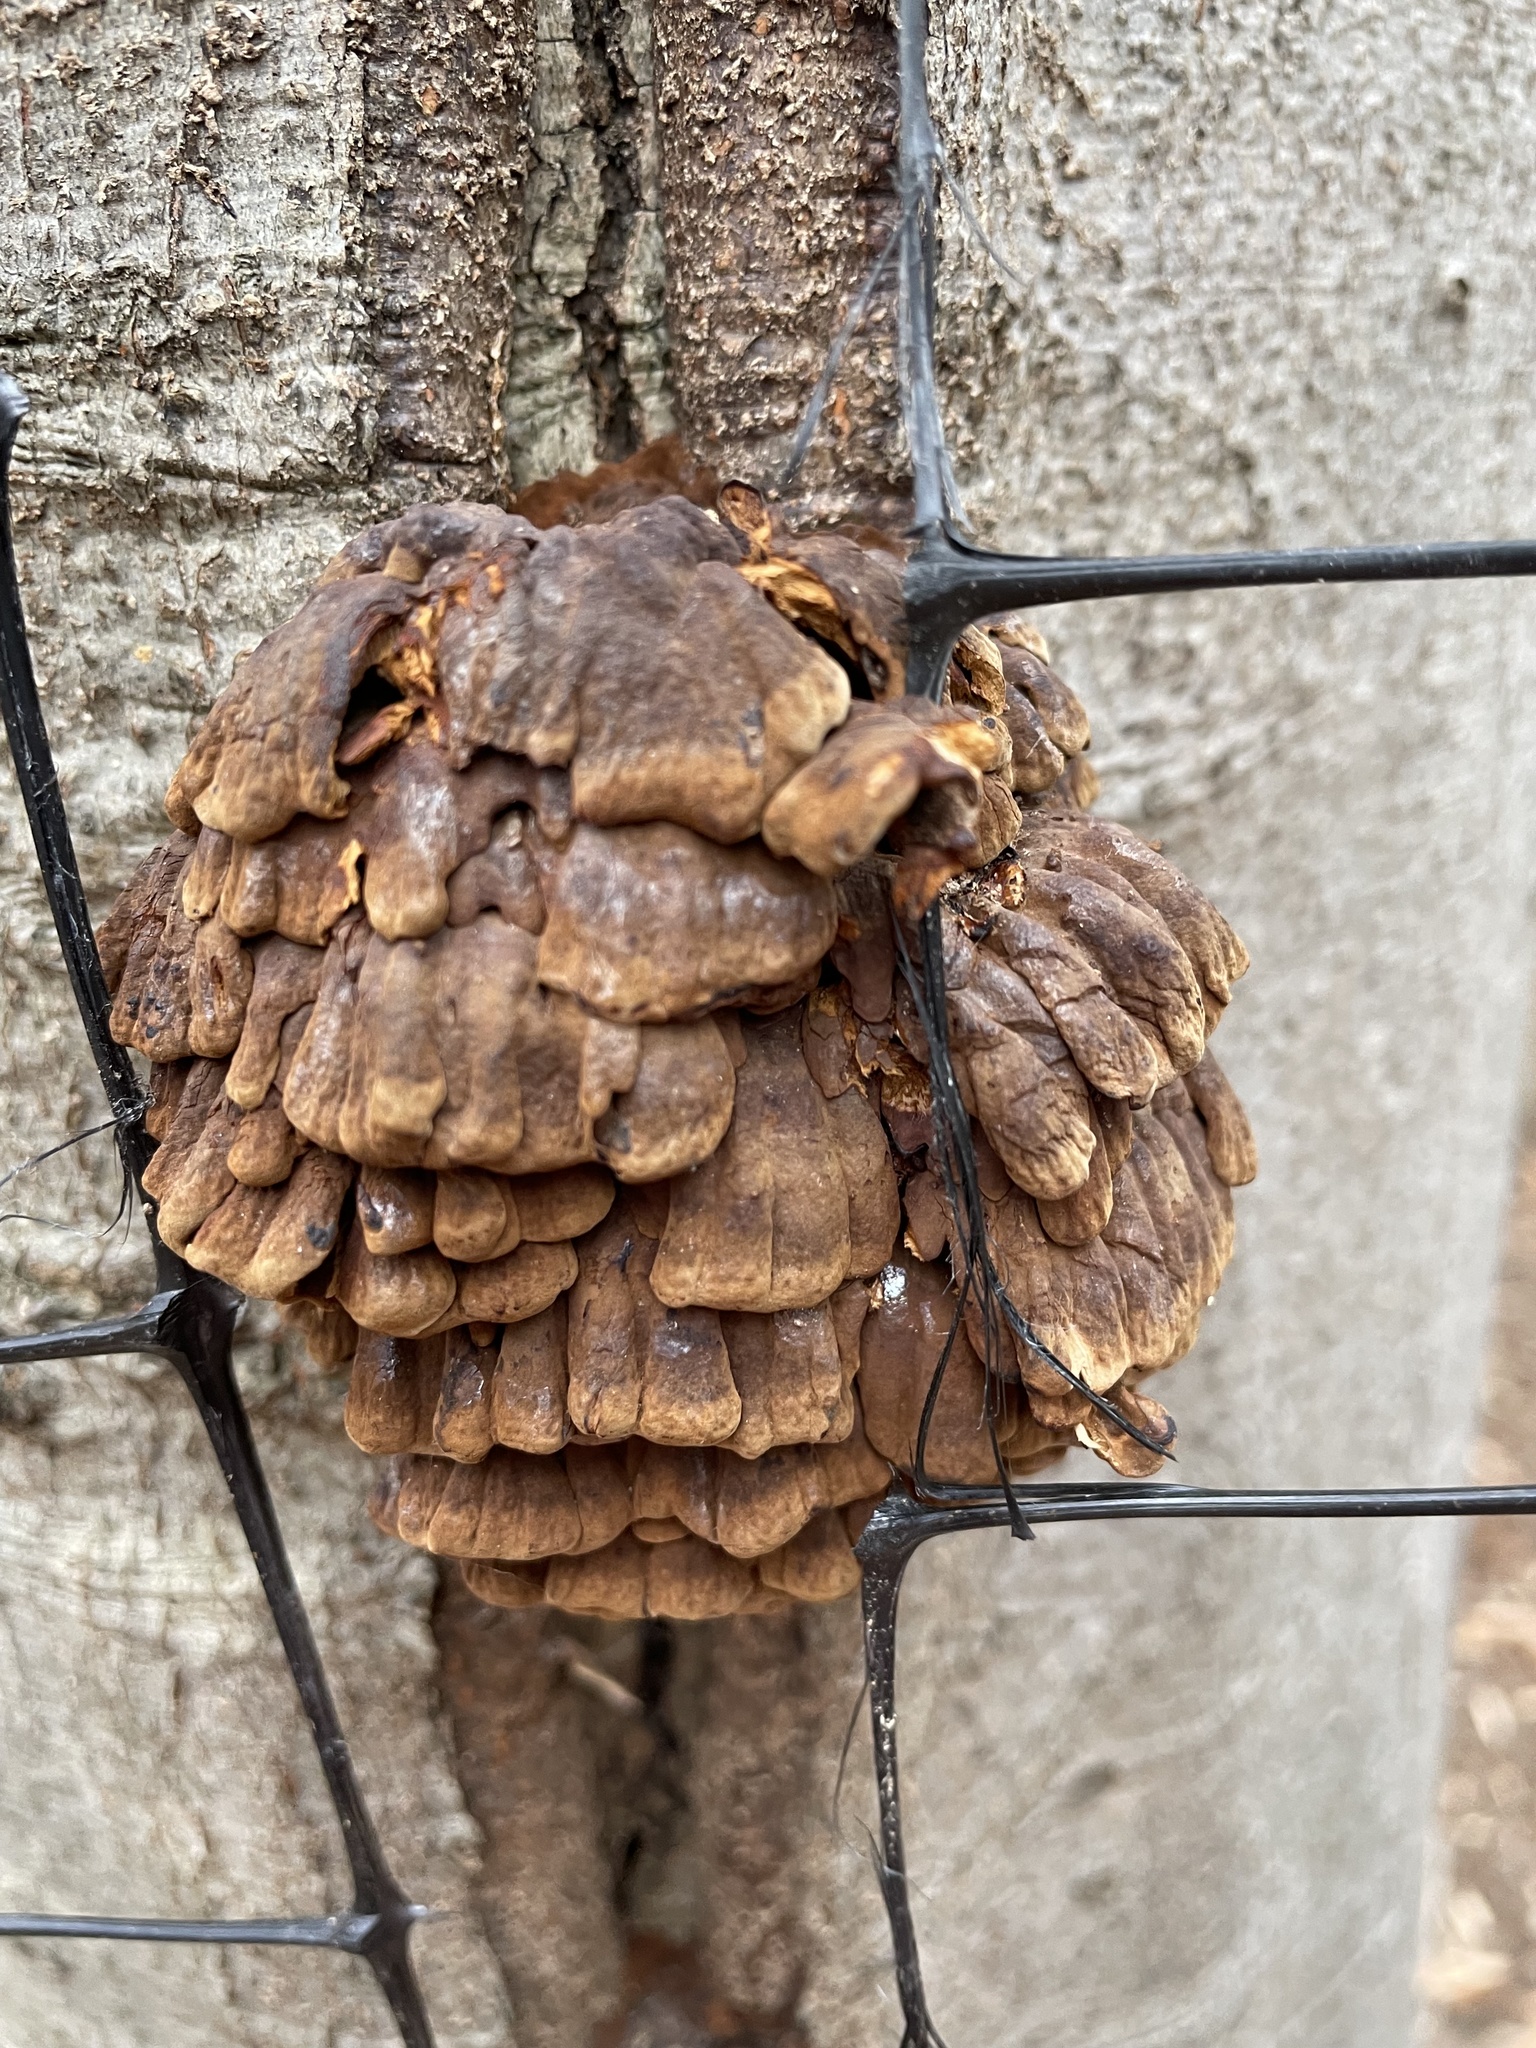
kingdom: Fungi
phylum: Basidiomycota
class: Agaricomycetes
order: Polyporales
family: Polyporaceae
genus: Globifomes
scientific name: Globifomes graveolens
